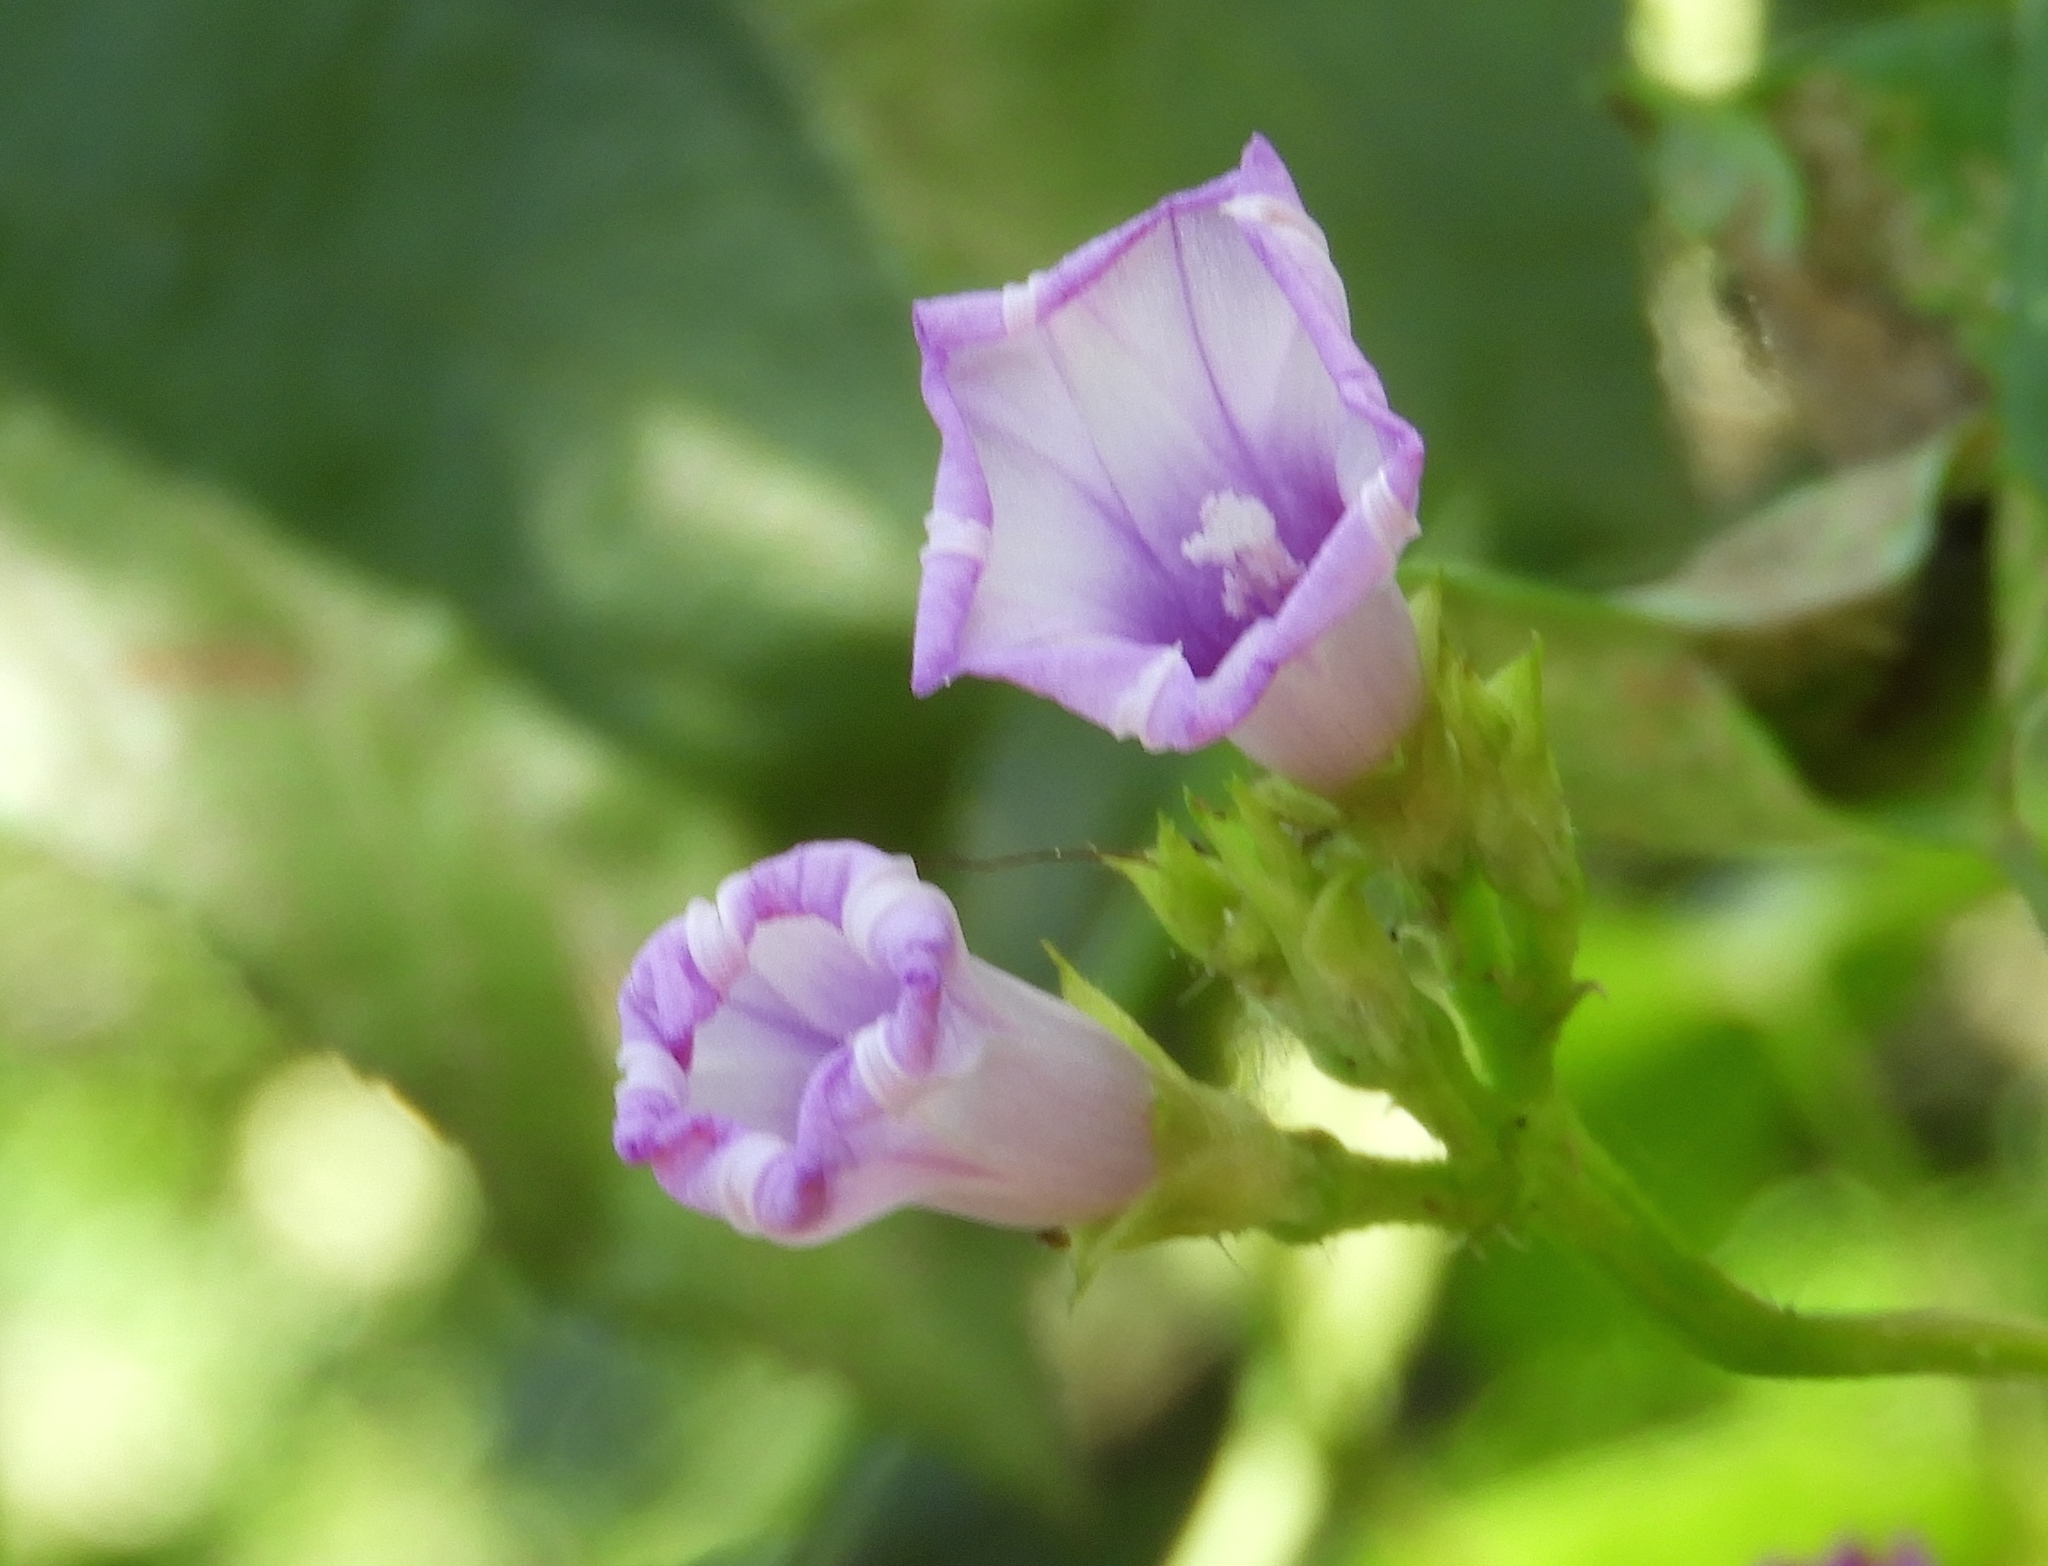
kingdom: Plantae
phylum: Tracheophyta
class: Magnoliopsida
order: Solanales
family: Convolvulaceae
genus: Ipomoea
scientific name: Ipomoea triloba
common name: Little-bell
